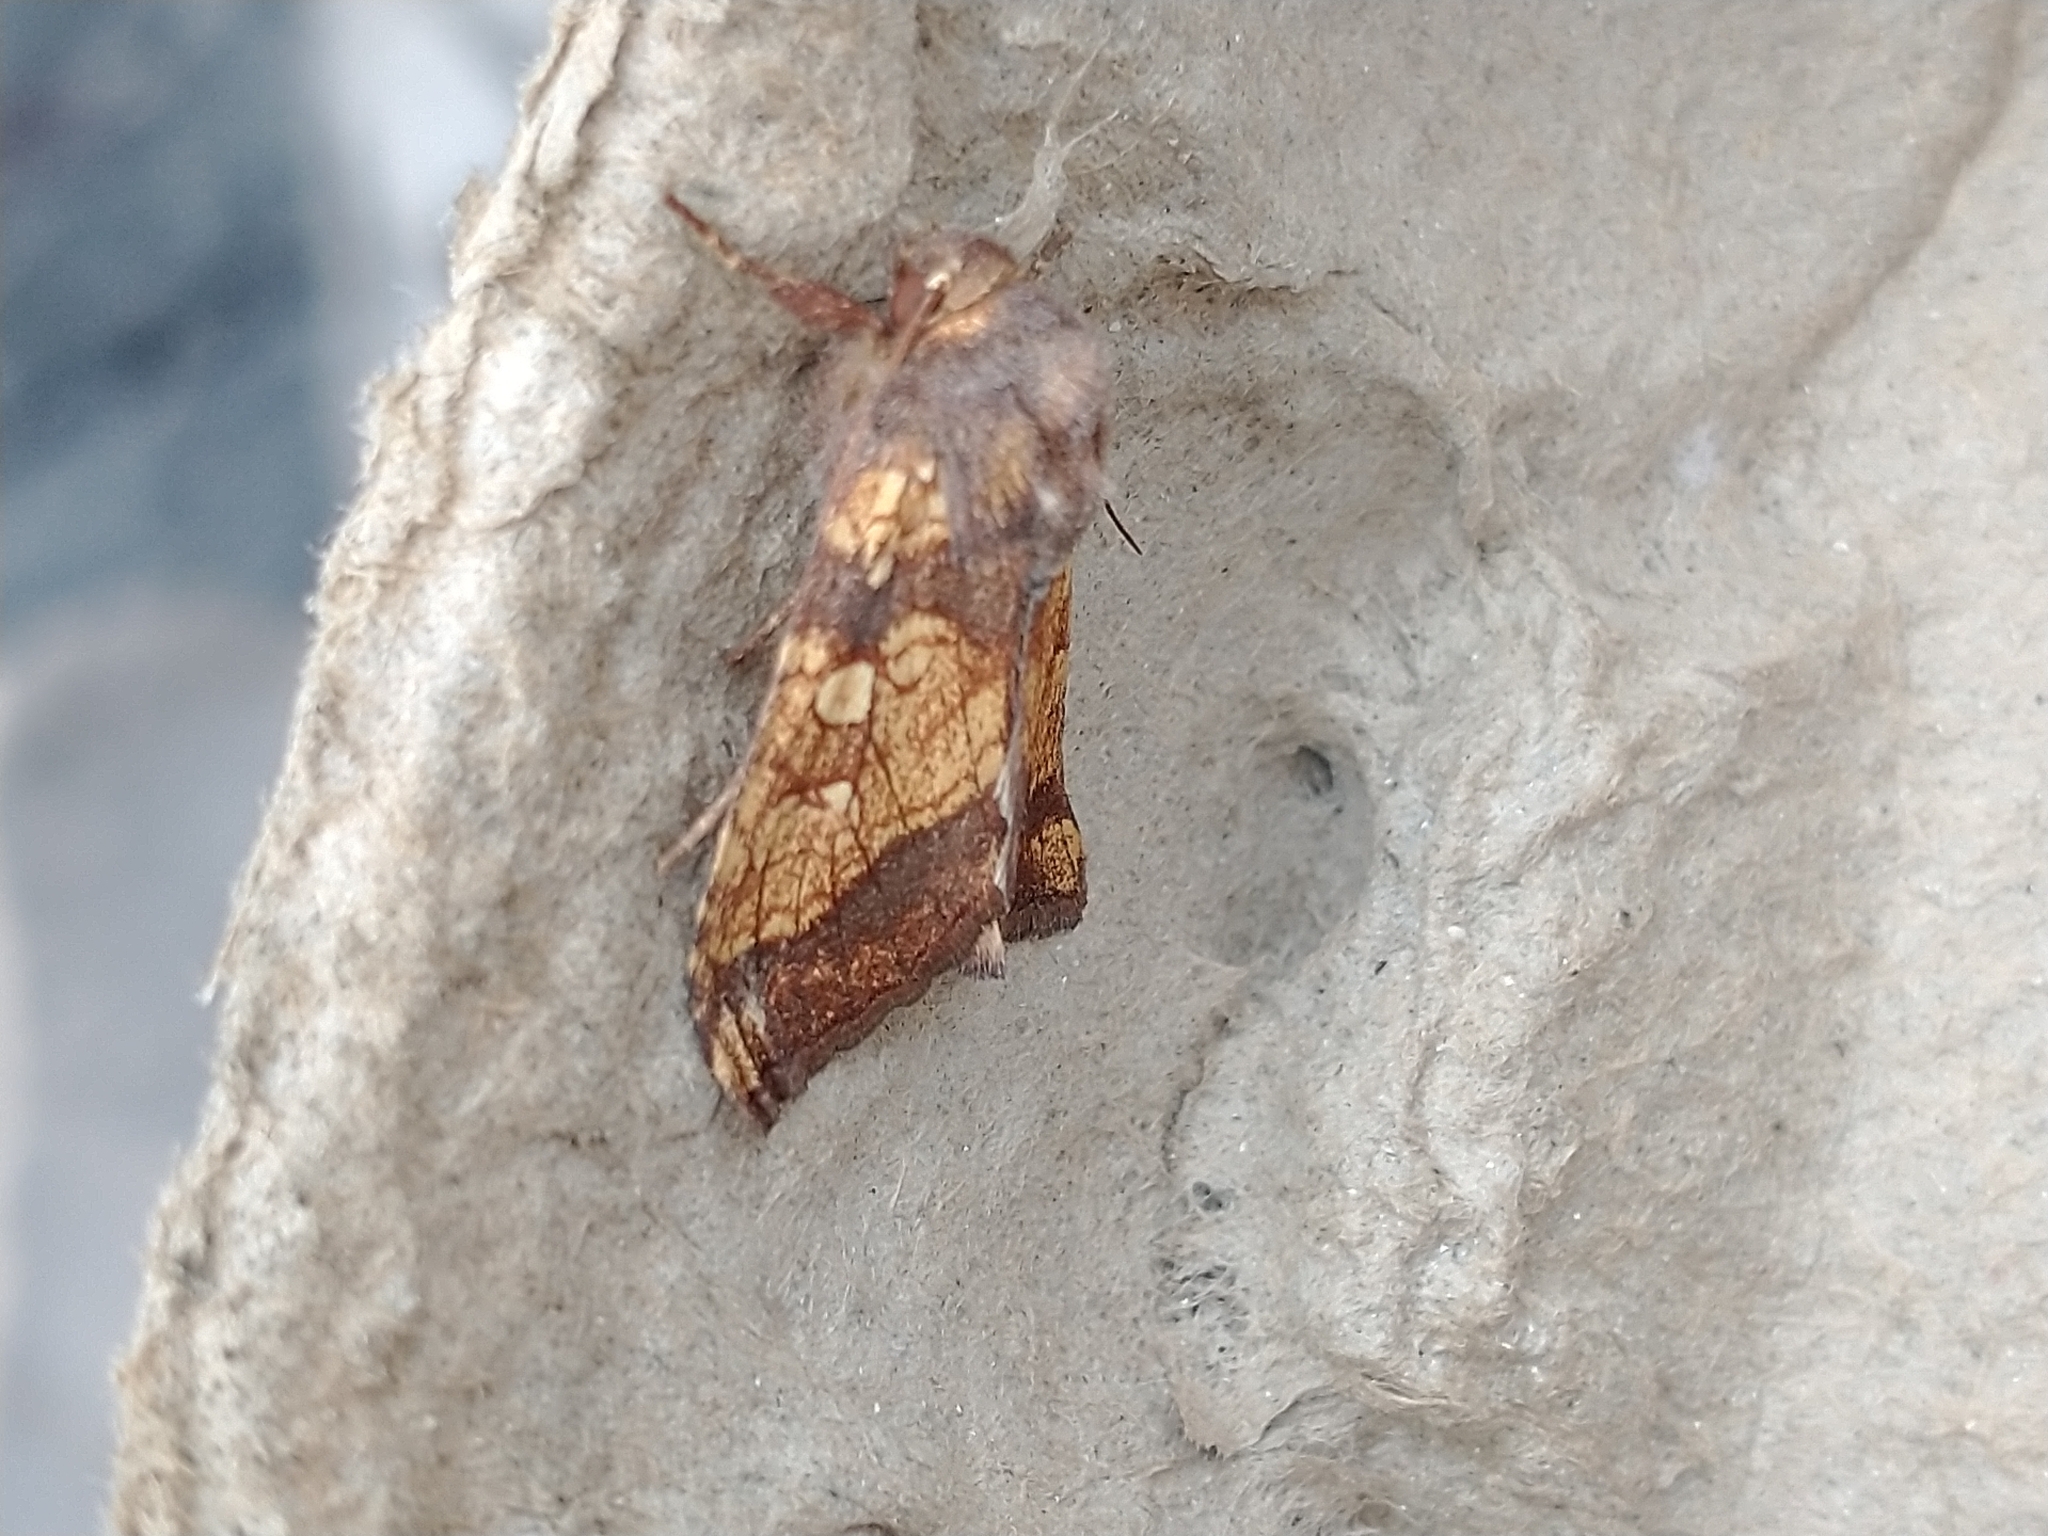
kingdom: Animalia
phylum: Arthropoda
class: Insecta
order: Lepidoptera
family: Noctuidae
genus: Gortyna
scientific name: Gortyna flavago
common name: Frosted orange
